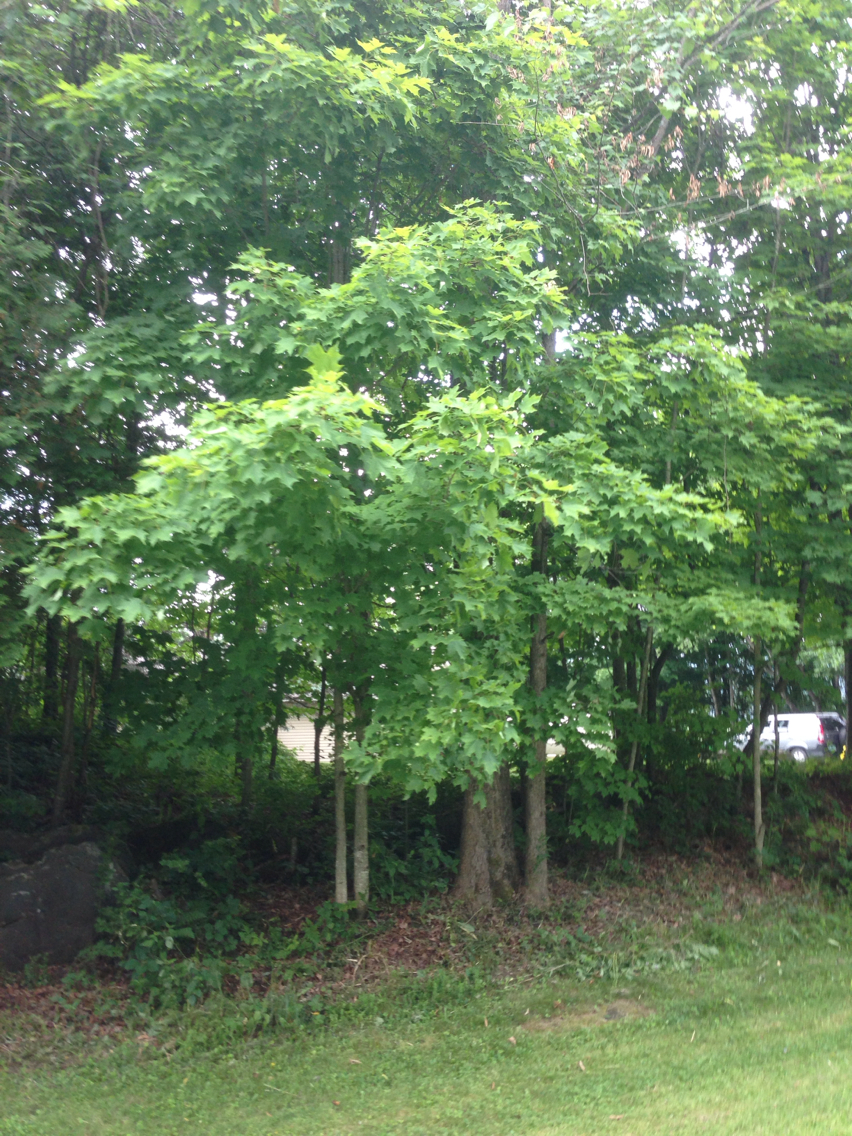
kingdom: Plantae
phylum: Tracheophyta
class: Magnoliopsida
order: Sapindales
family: Sapindaceae
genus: Acer
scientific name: Acer saccharum
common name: Sugar maple
